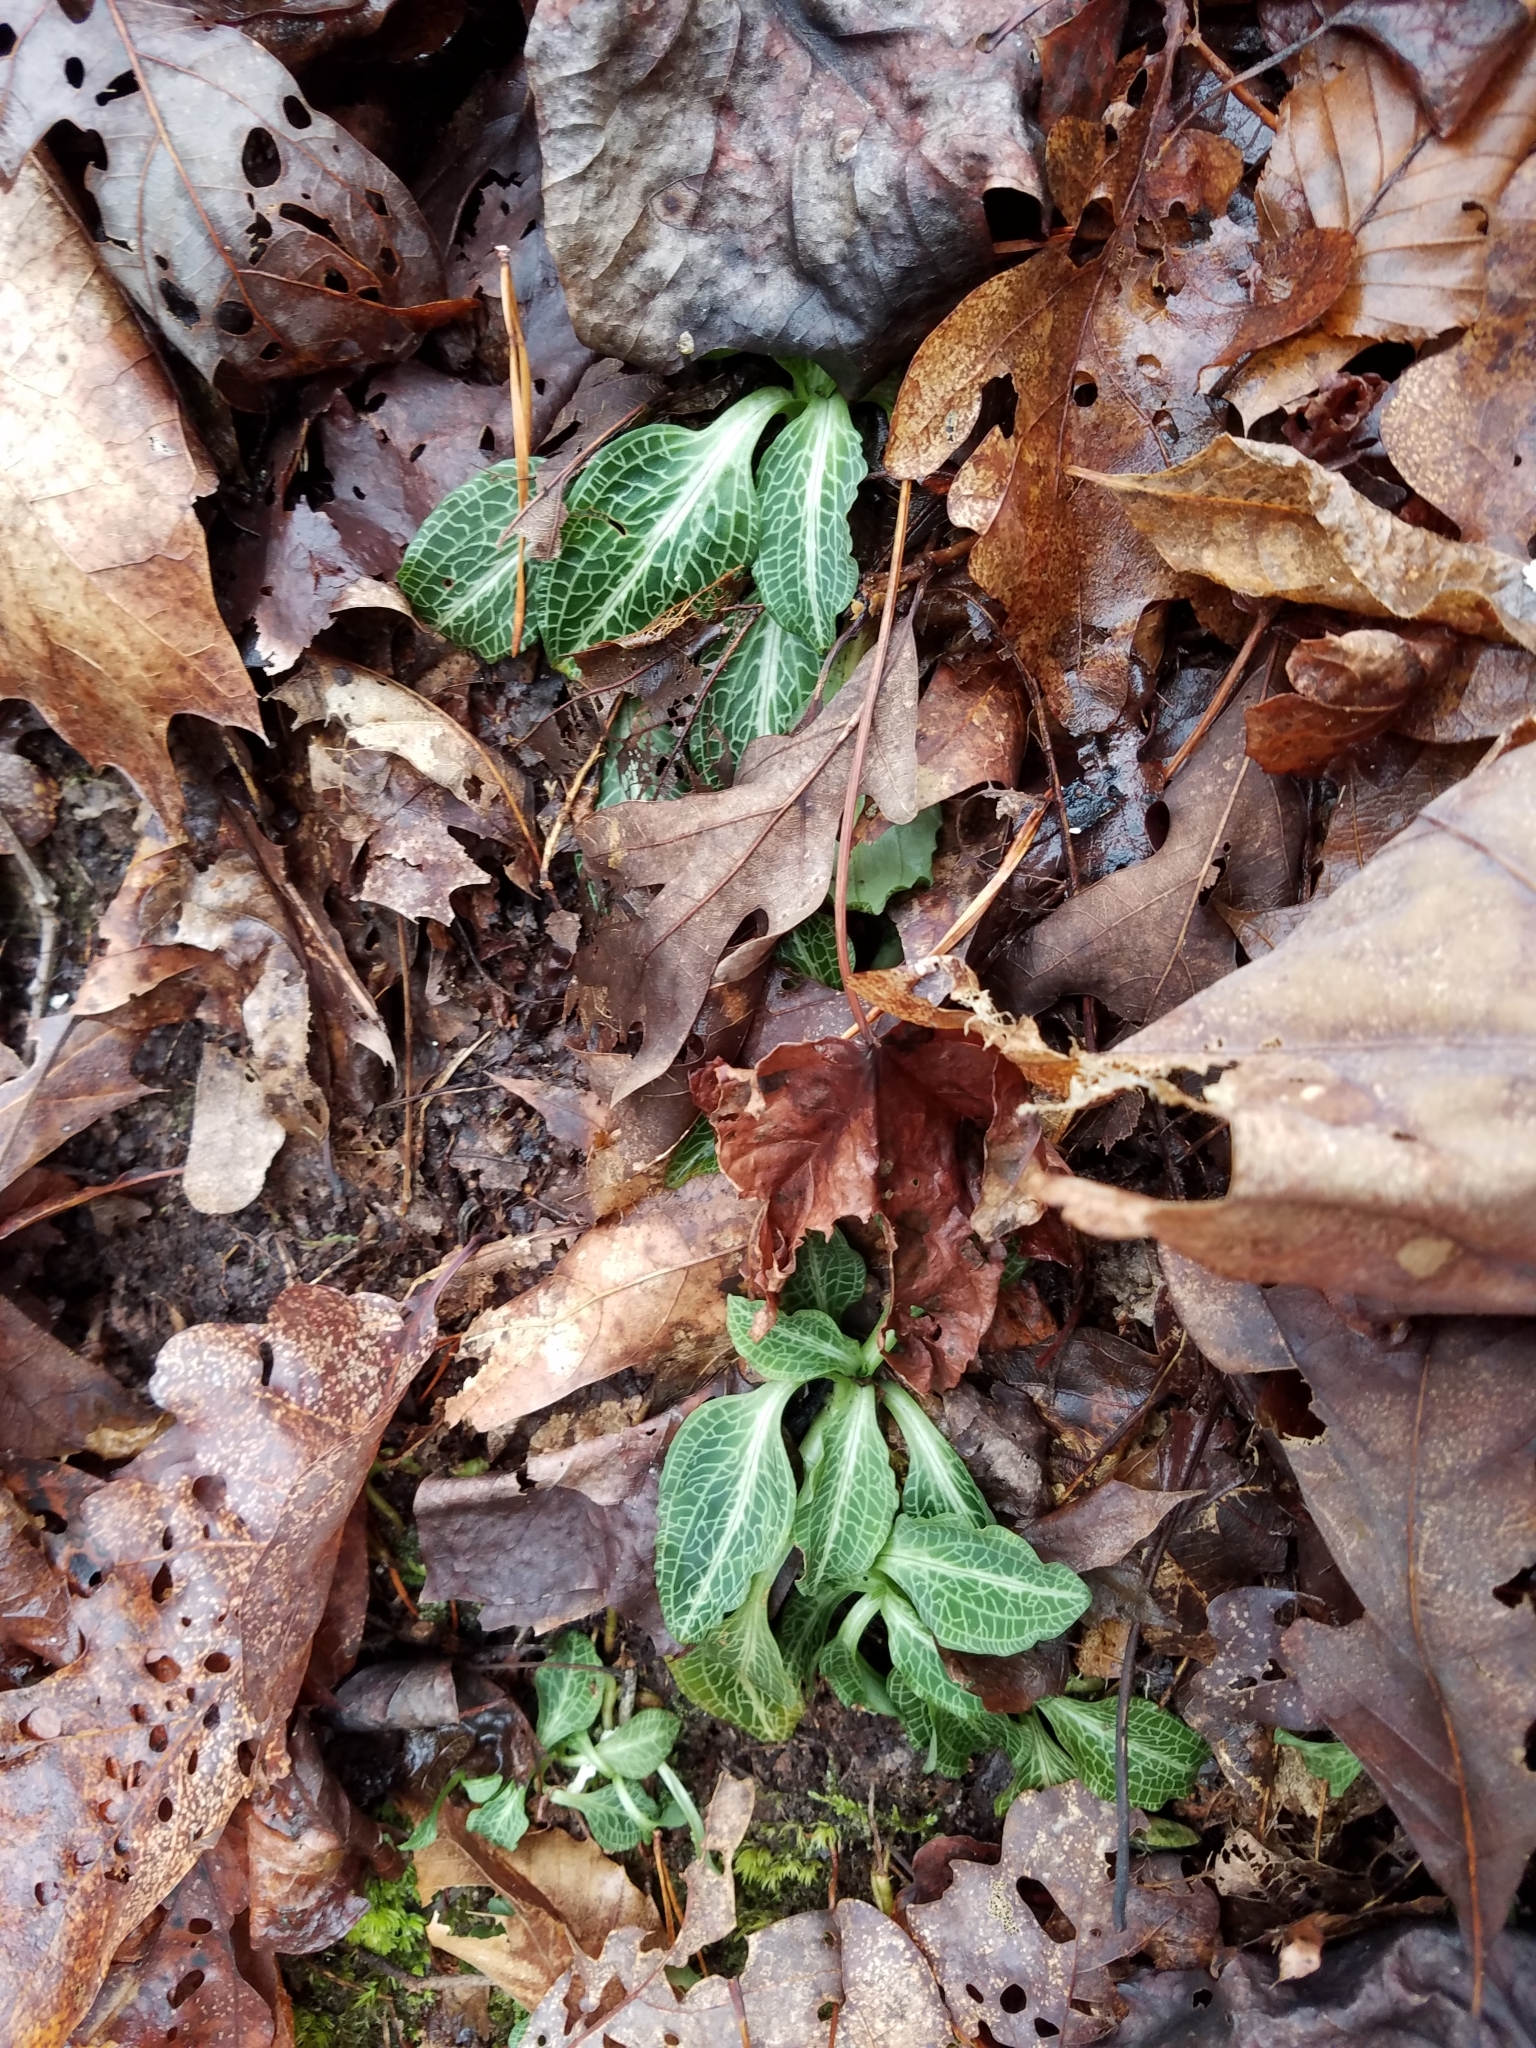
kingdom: Plantae
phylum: Tracheophyta
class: Liliopsida
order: Asparagales
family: Orchidaceae
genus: Goodyera
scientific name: Goodyera pubescens
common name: Downy rattlesnake-plantain
